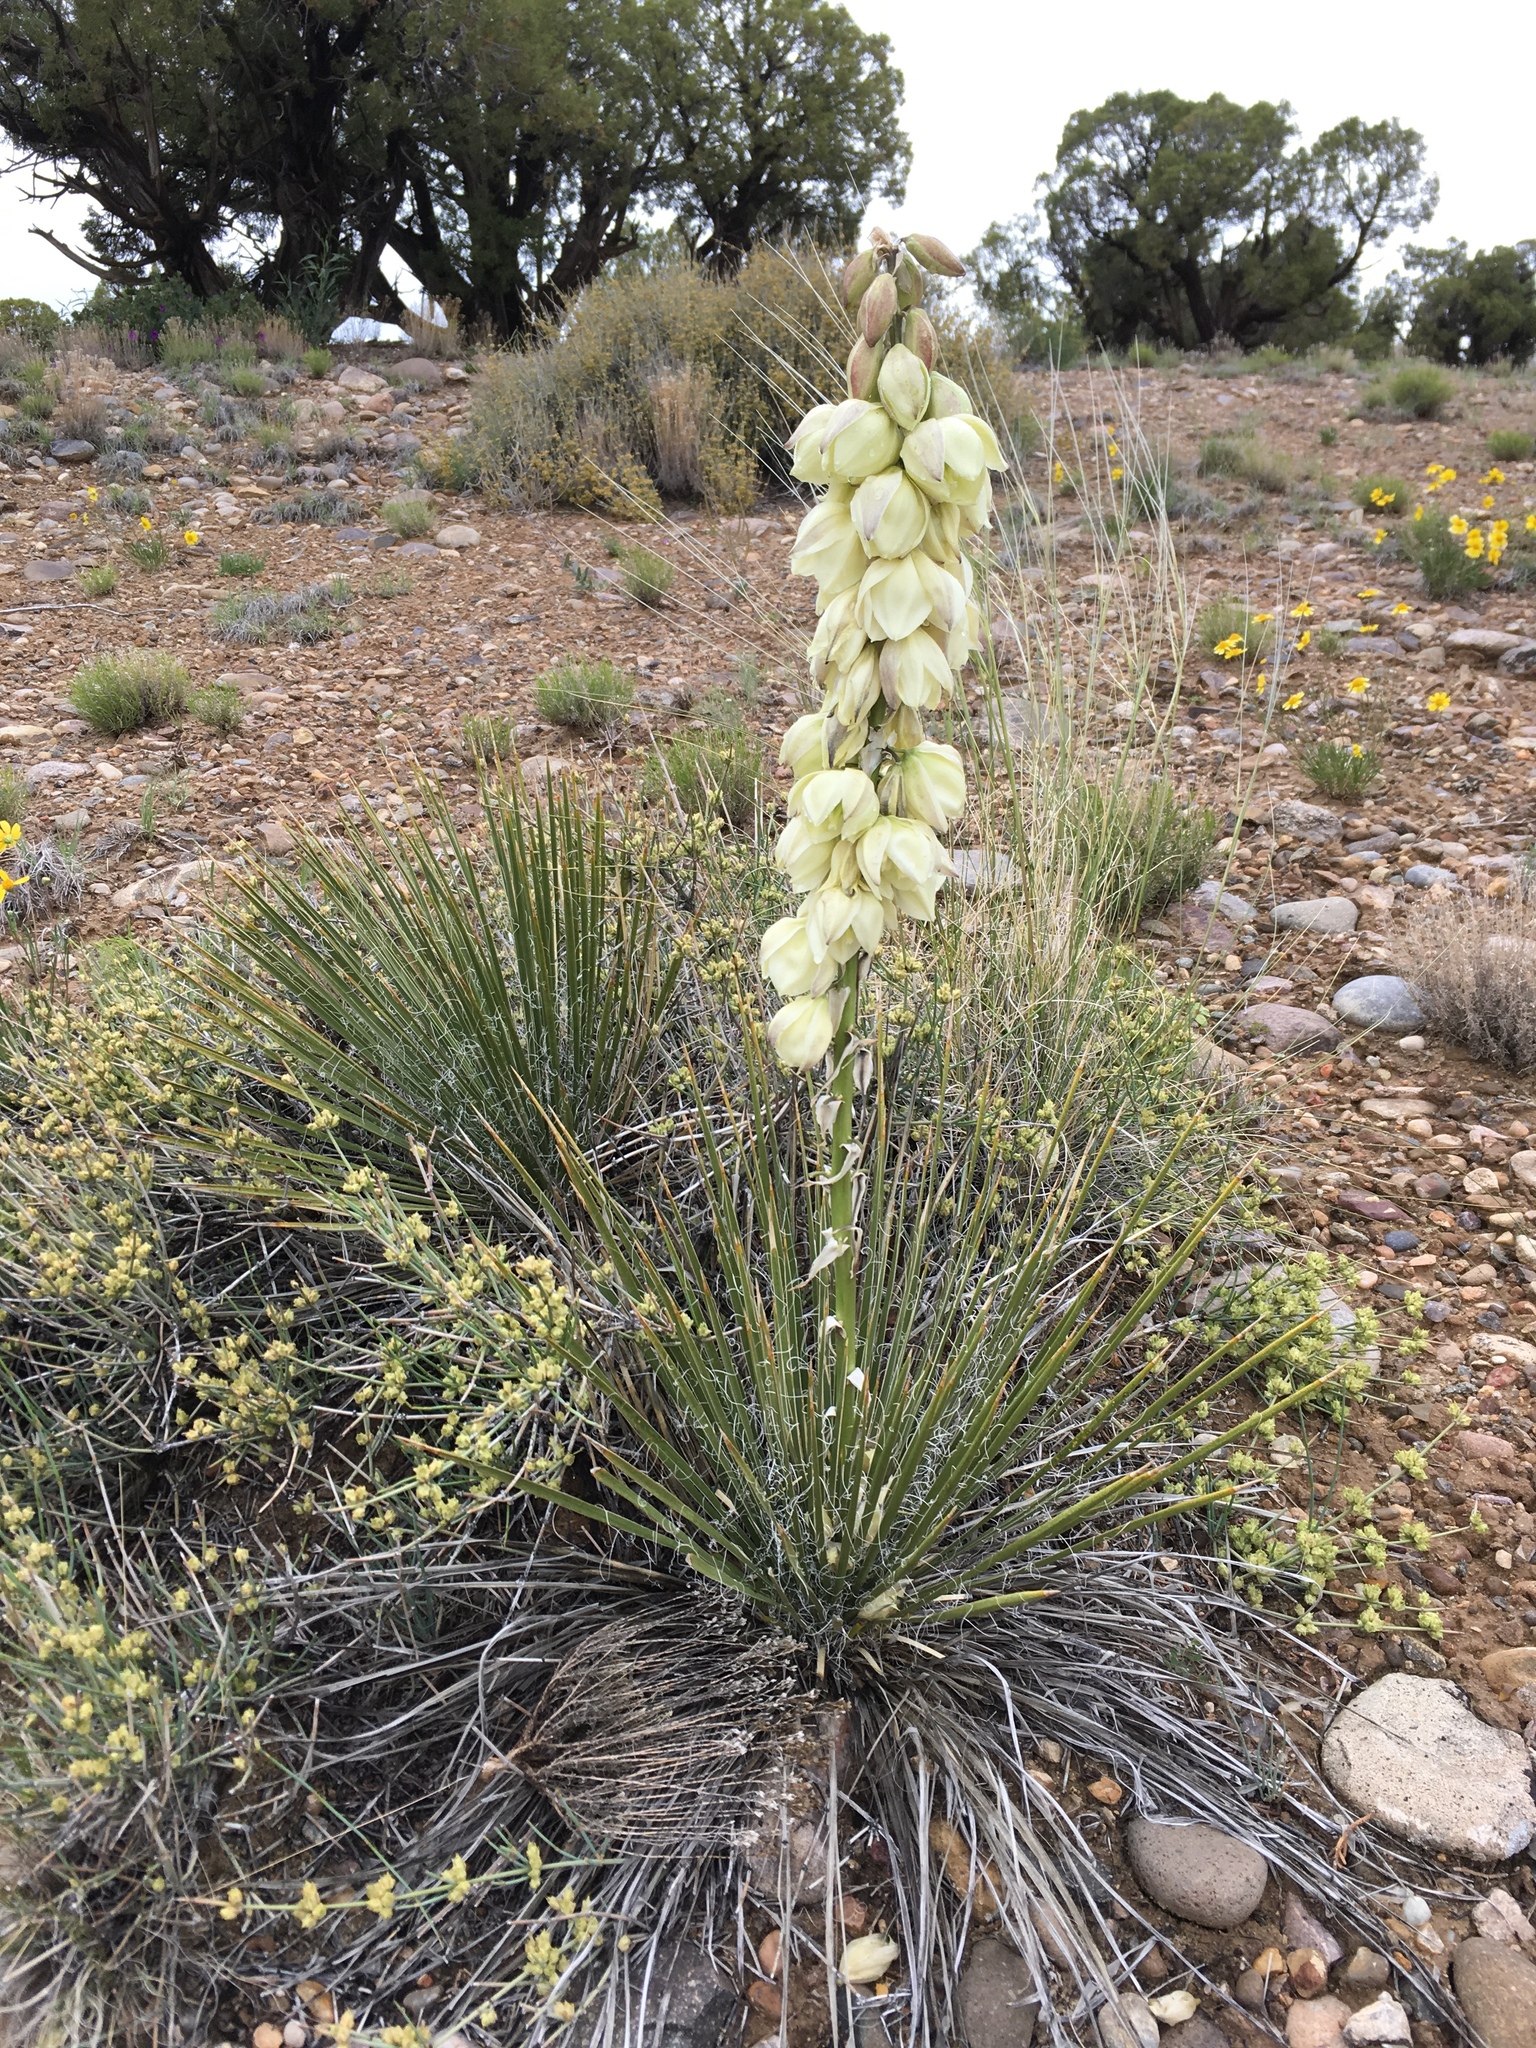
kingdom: Plantae
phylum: Tracheophyta
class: Liliopsida
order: Asparagales
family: Asparagaceae
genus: Yucca
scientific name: Yucca baileyi
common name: Alpine yucca
